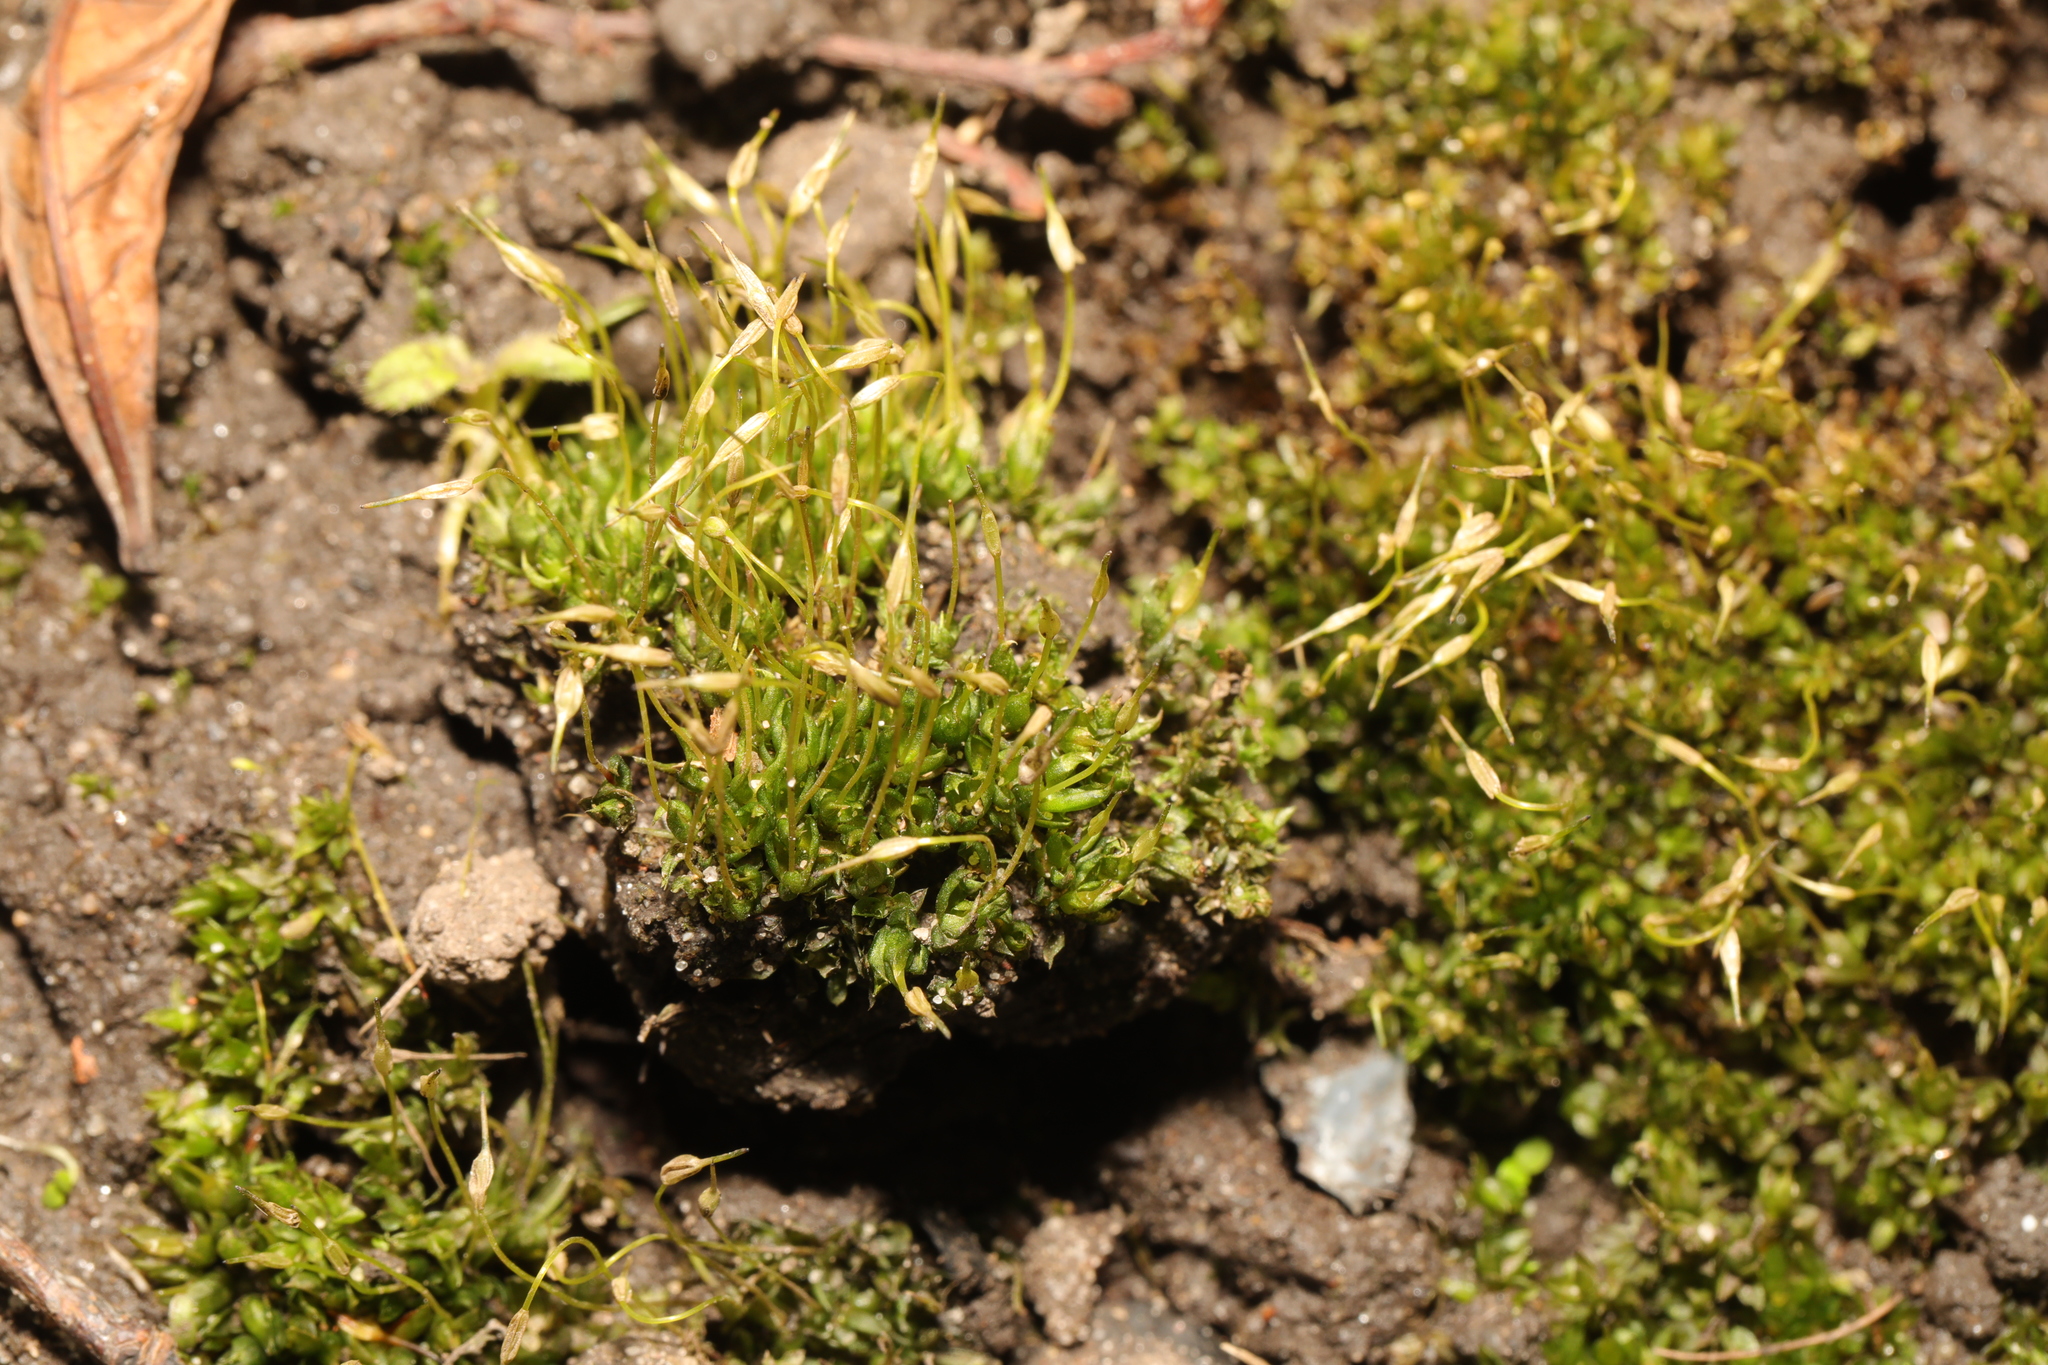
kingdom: Plantae
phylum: Bryophyta
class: Bryopsida
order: Funariales
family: Funariaceae
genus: Funaria
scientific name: Funaria hygrometrica
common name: Common cord moss
